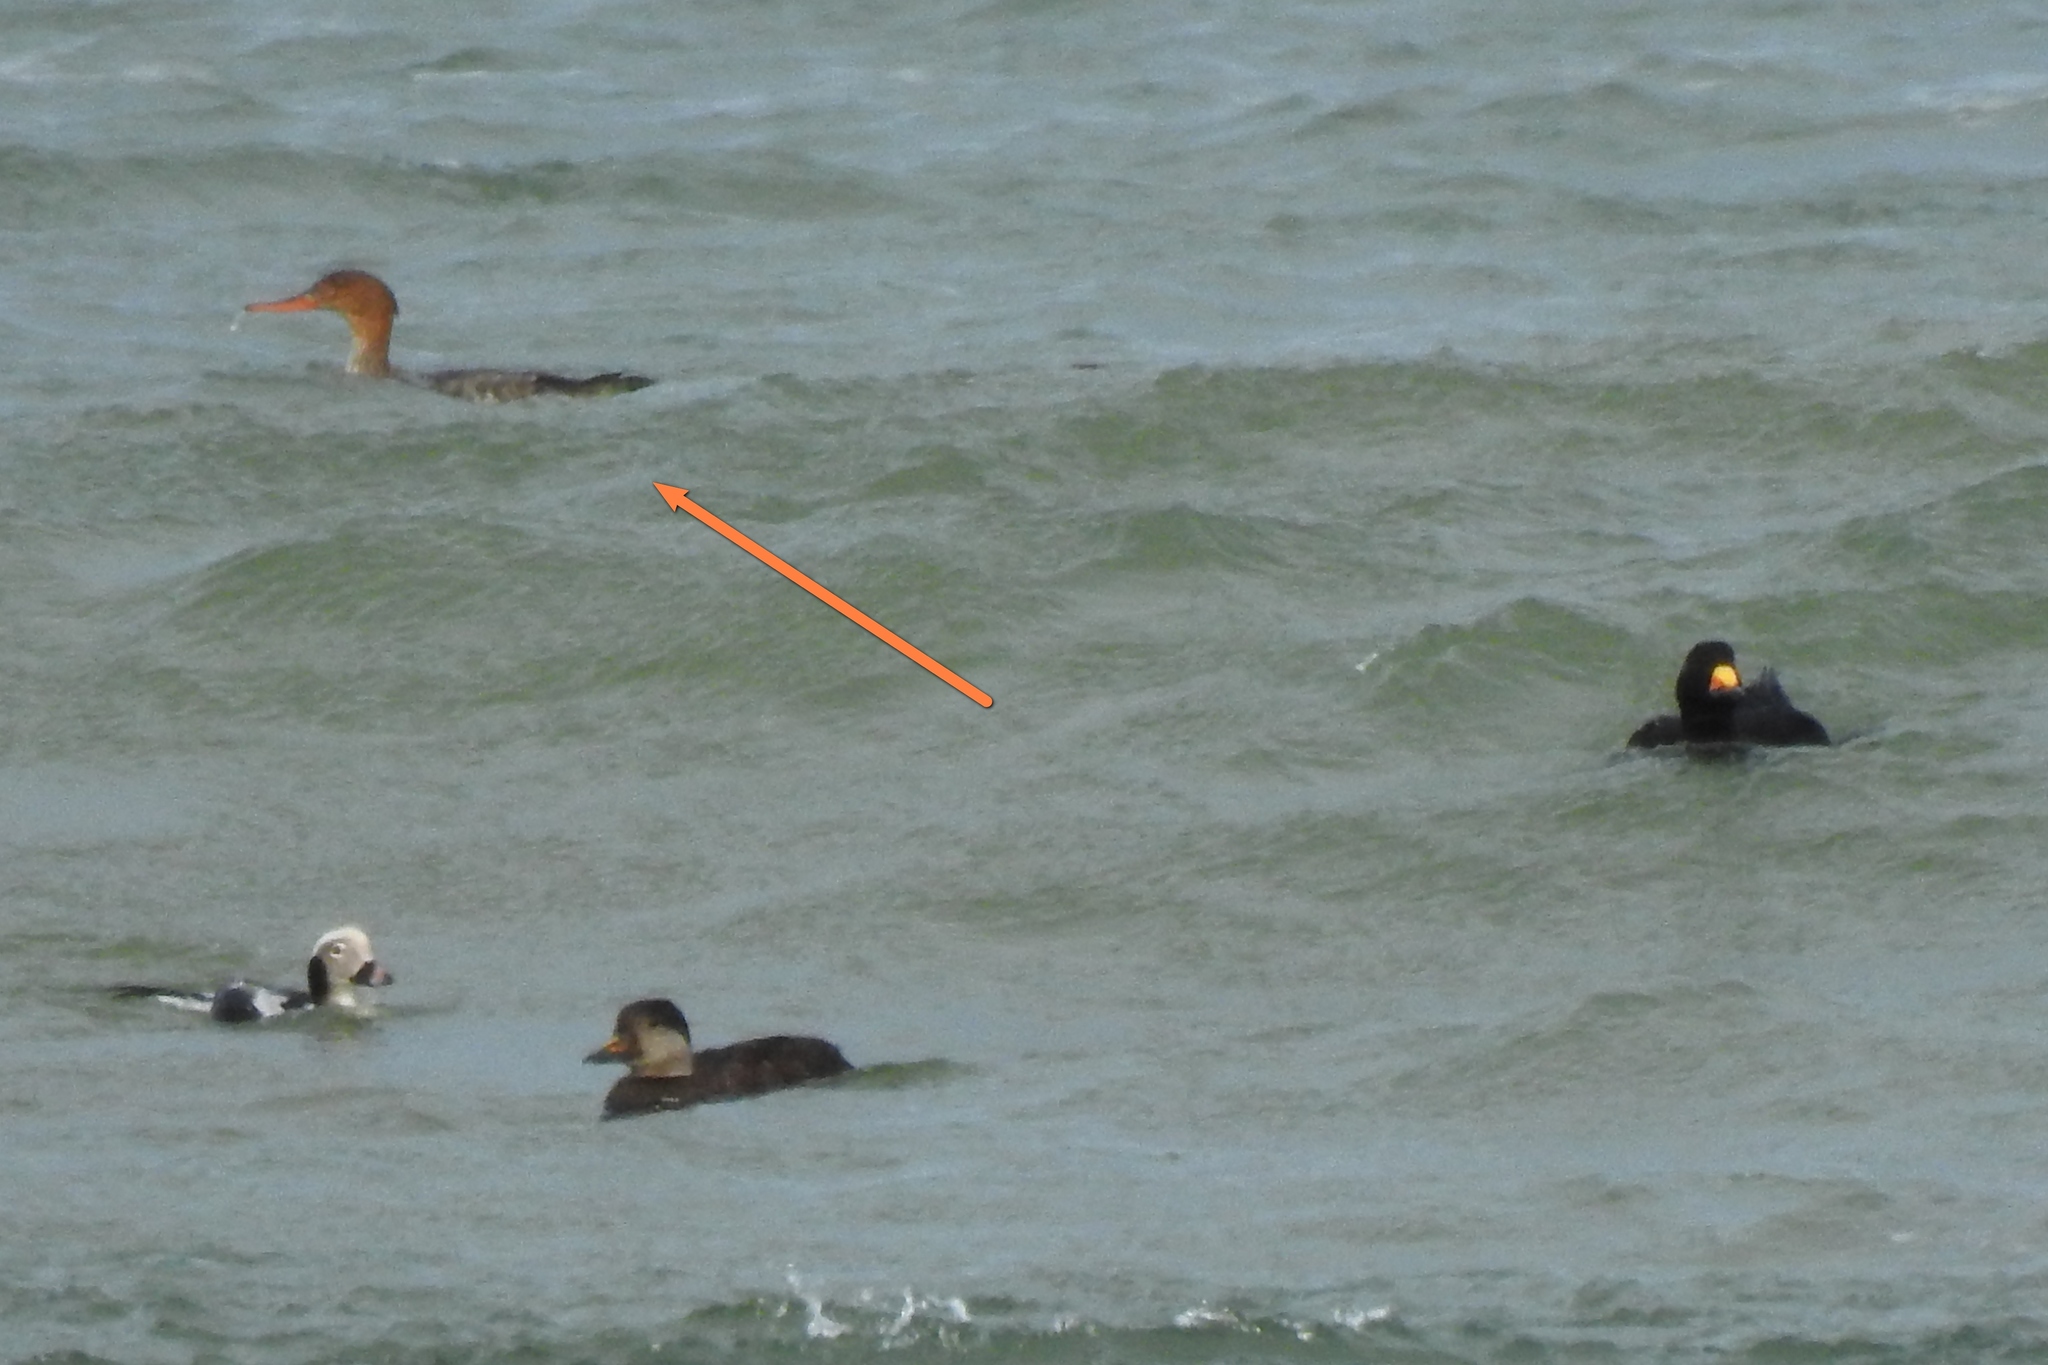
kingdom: Animalia
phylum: Chordata
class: Aves
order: Anseriformes
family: Anatidae
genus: Mergus
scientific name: Mergus serrator
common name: Red-breasted merganser
